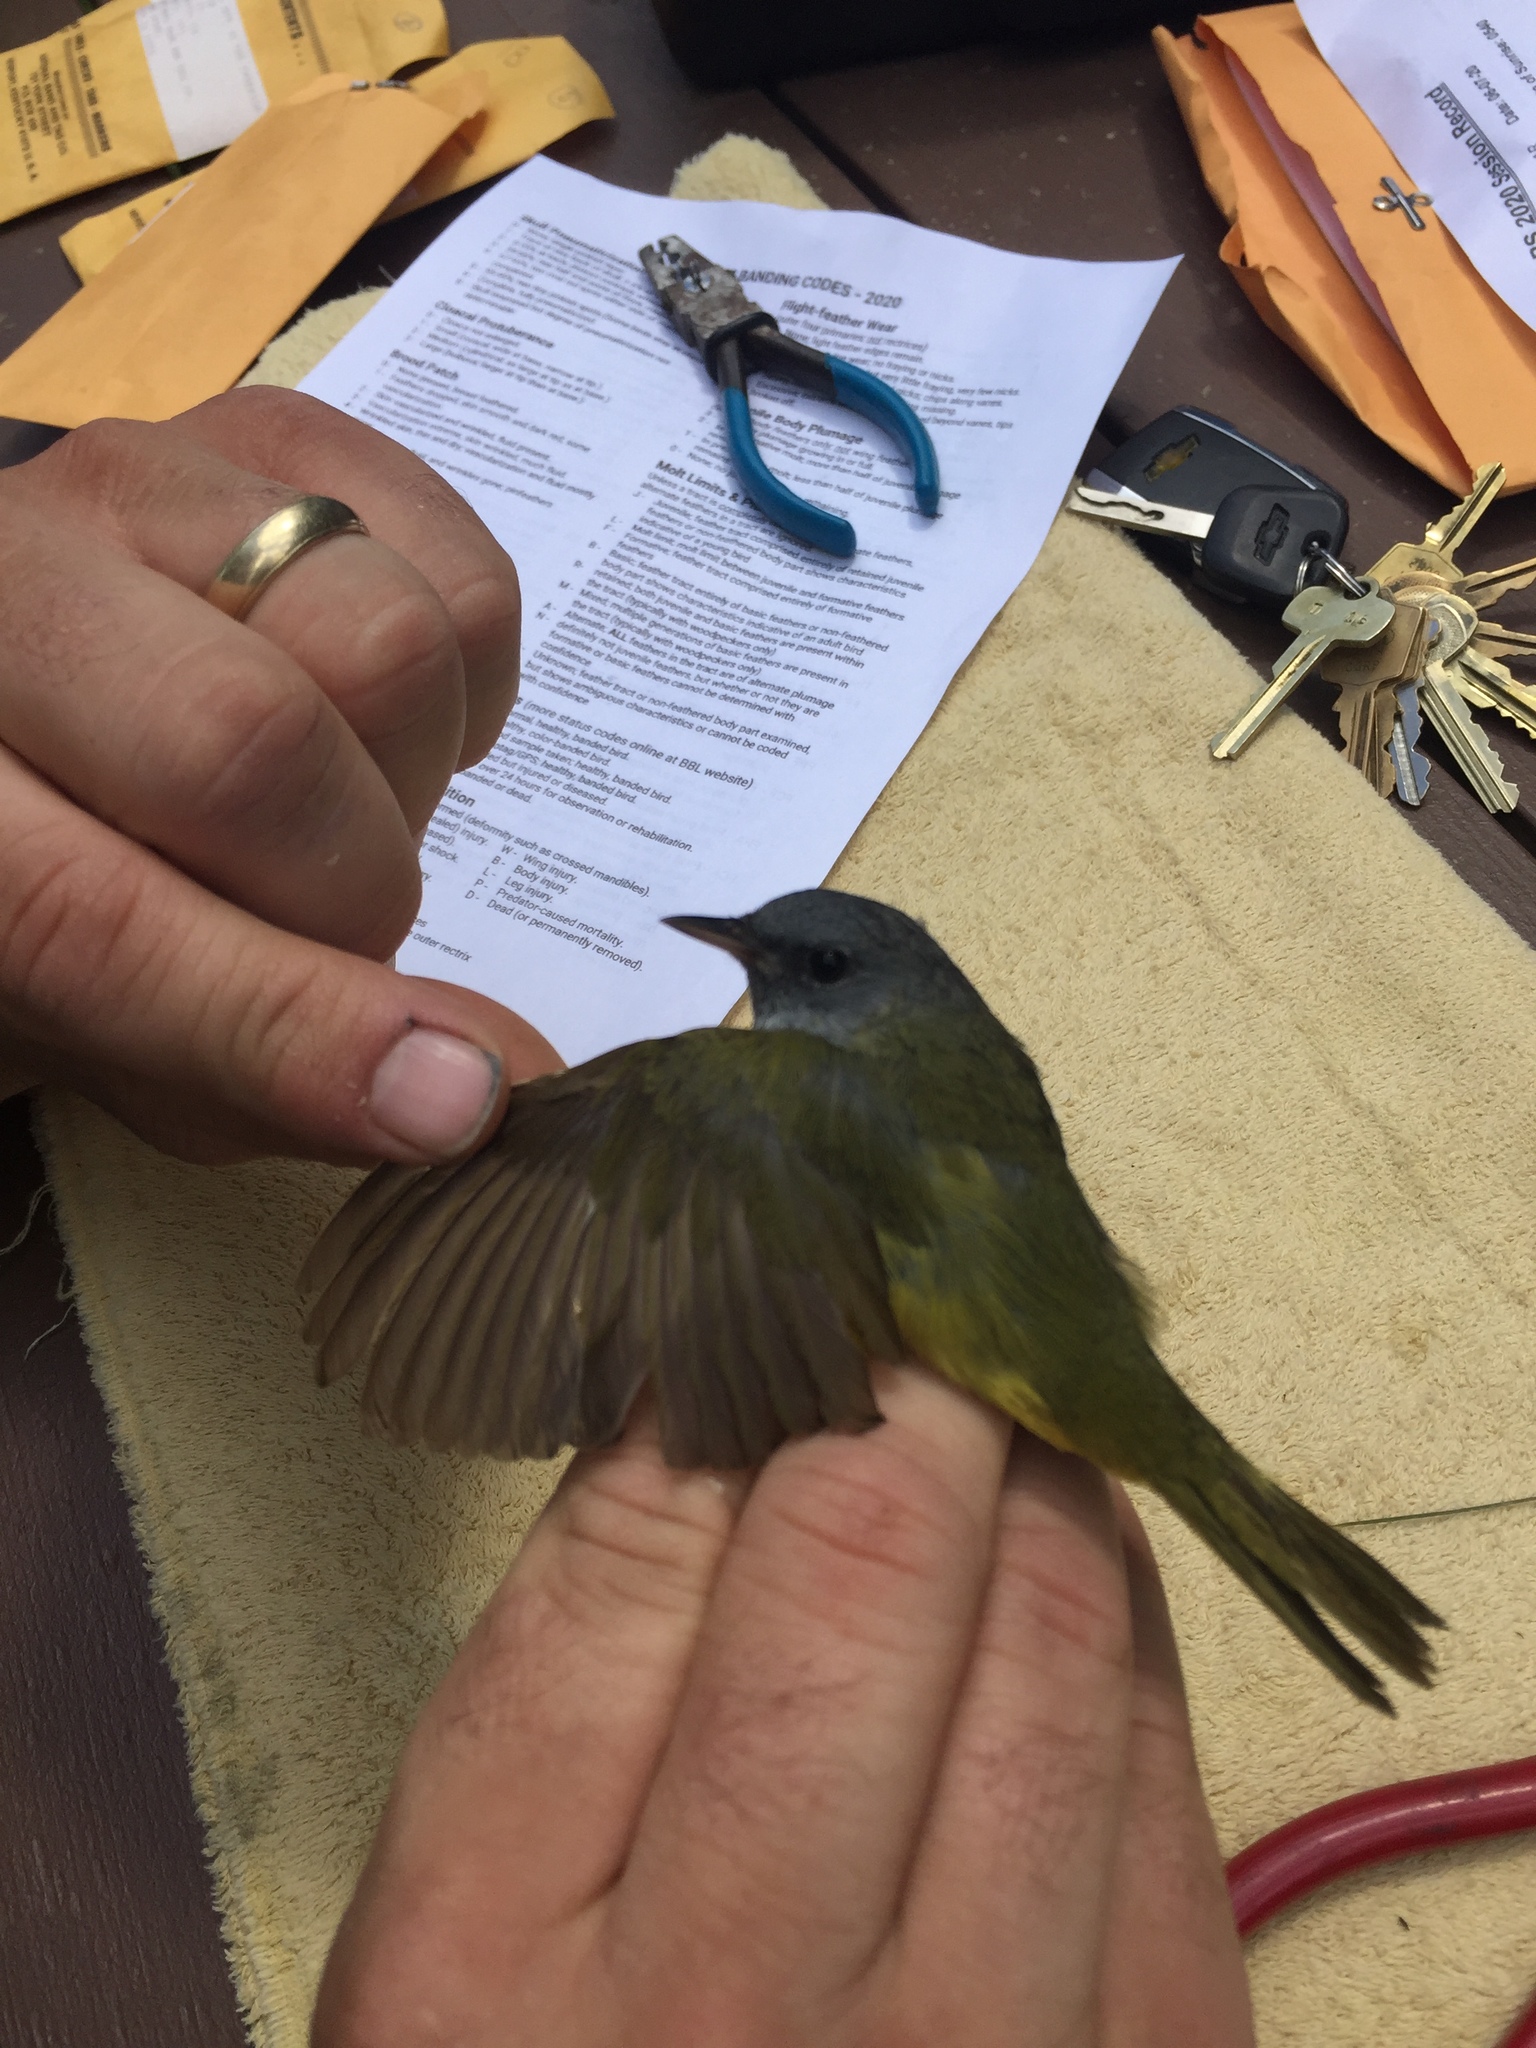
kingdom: Animalia
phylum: Chordata
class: Aves
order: Passeriformes
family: Parulidae
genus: Geothlypis
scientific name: Geothlypis philadelphia
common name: Mourning warbler
